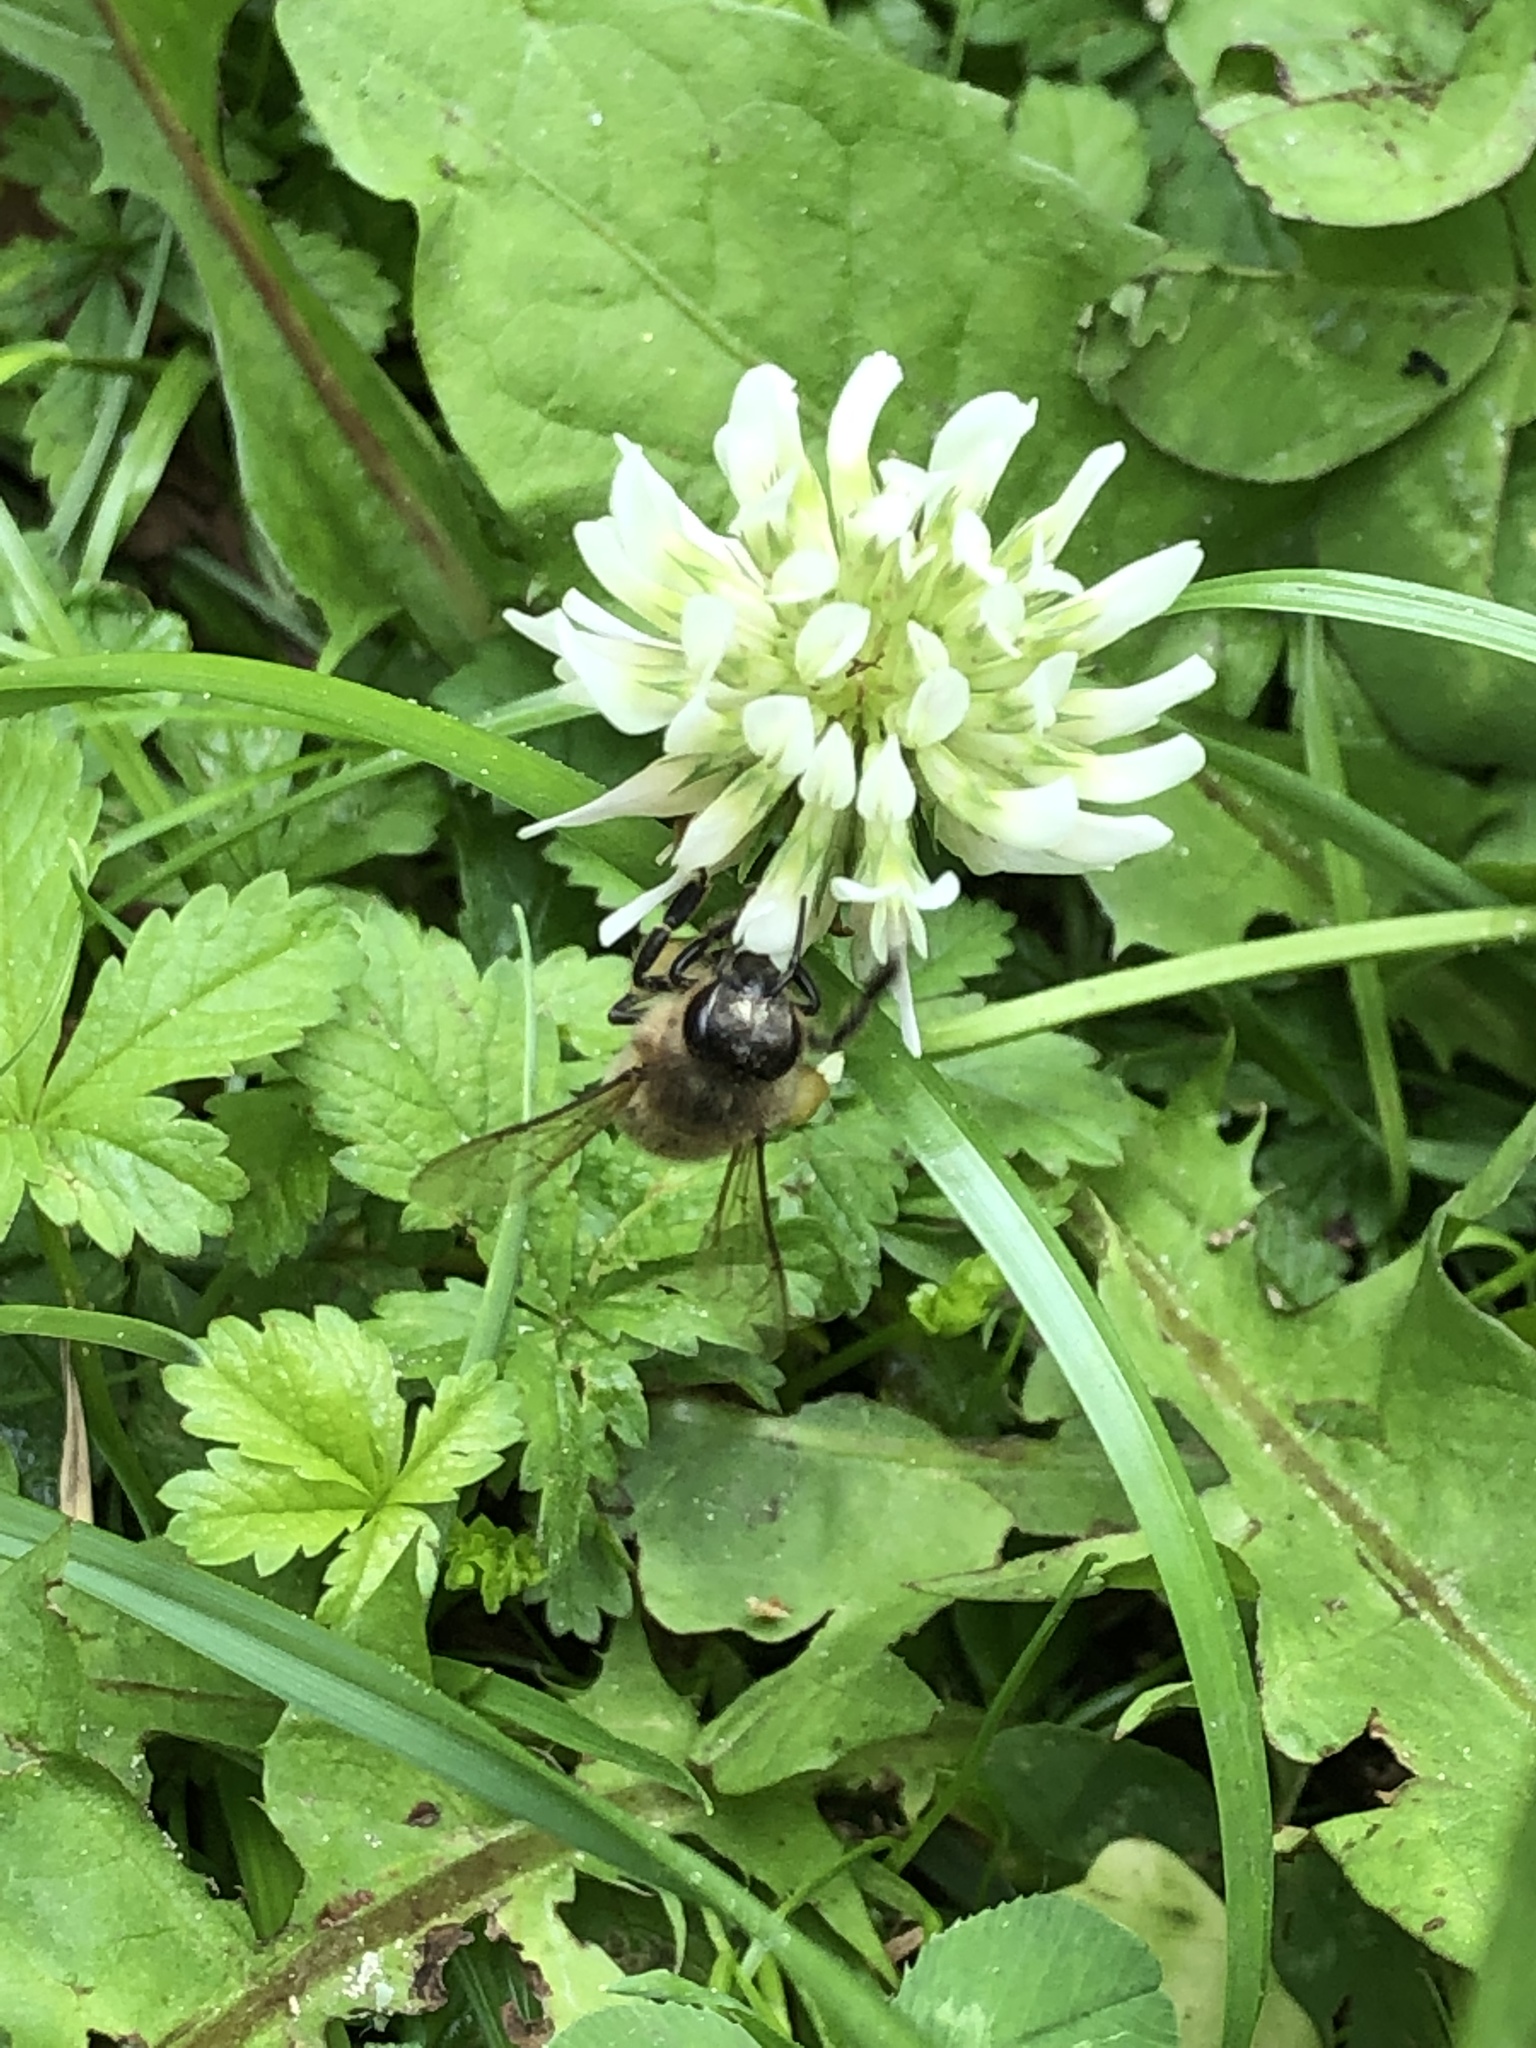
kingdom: Animalia
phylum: Arthropoda
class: Insecta
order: Hymenoptera
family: Apidae
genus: Apis
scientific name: Apis mellifera
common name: Honey bee
